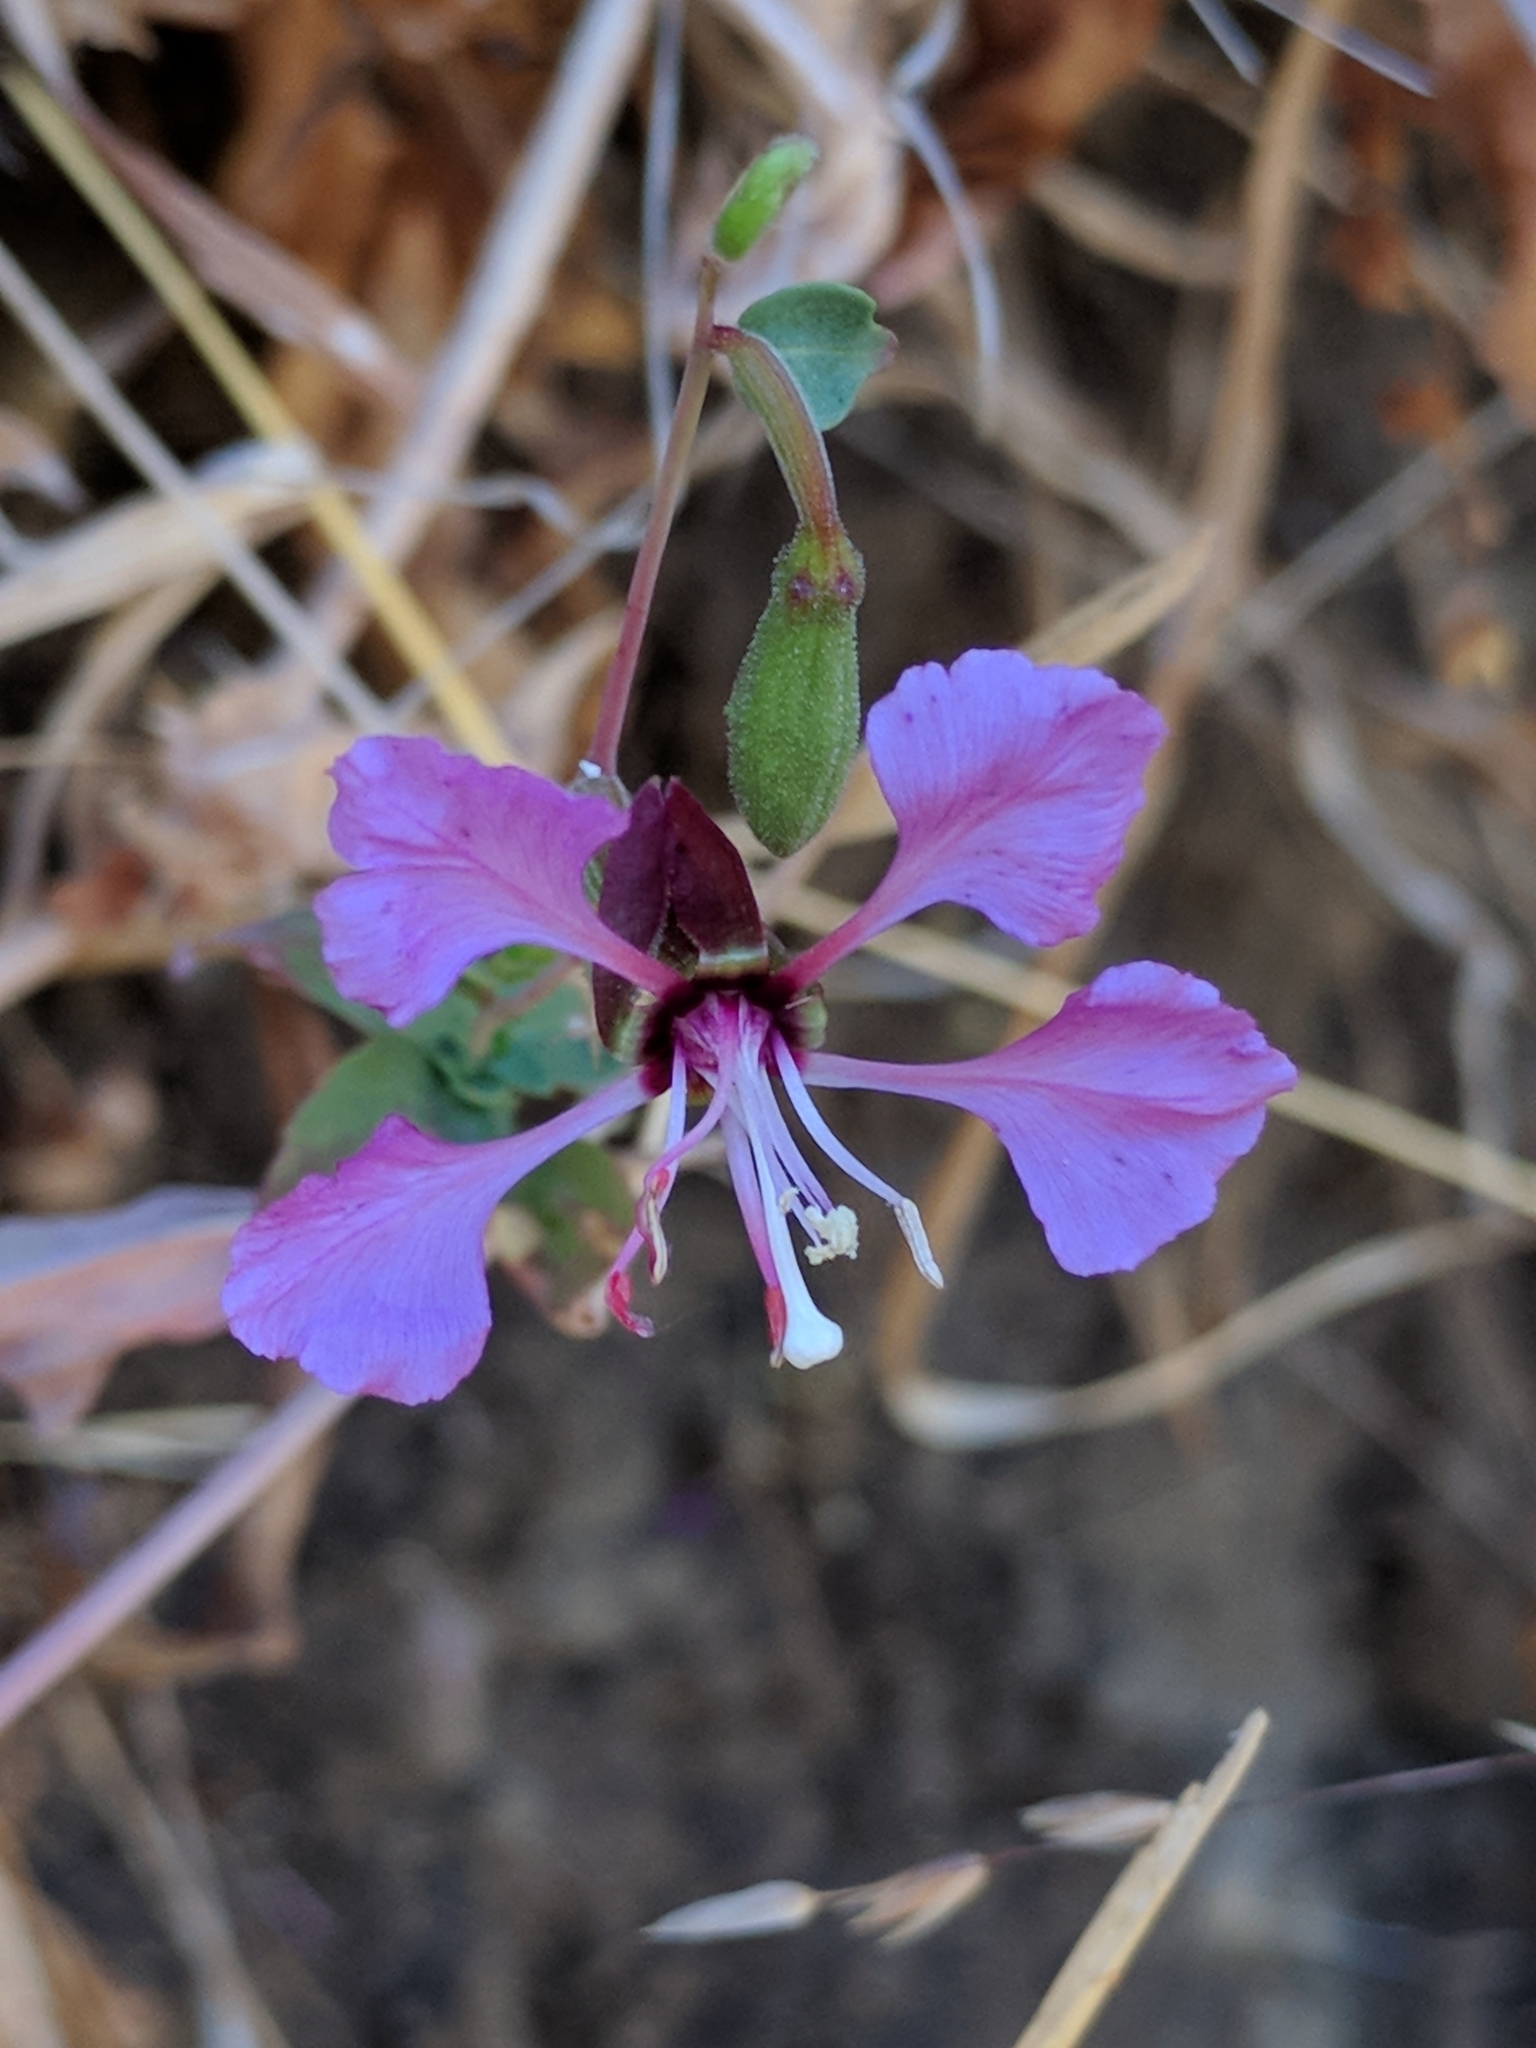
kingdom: Plantae
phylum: Tracheophyta
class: Magnoliopsida
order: Myrtales
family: Onagraceae
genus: Clarkia
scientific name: Clarkia unguiculata
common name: Clarkia
